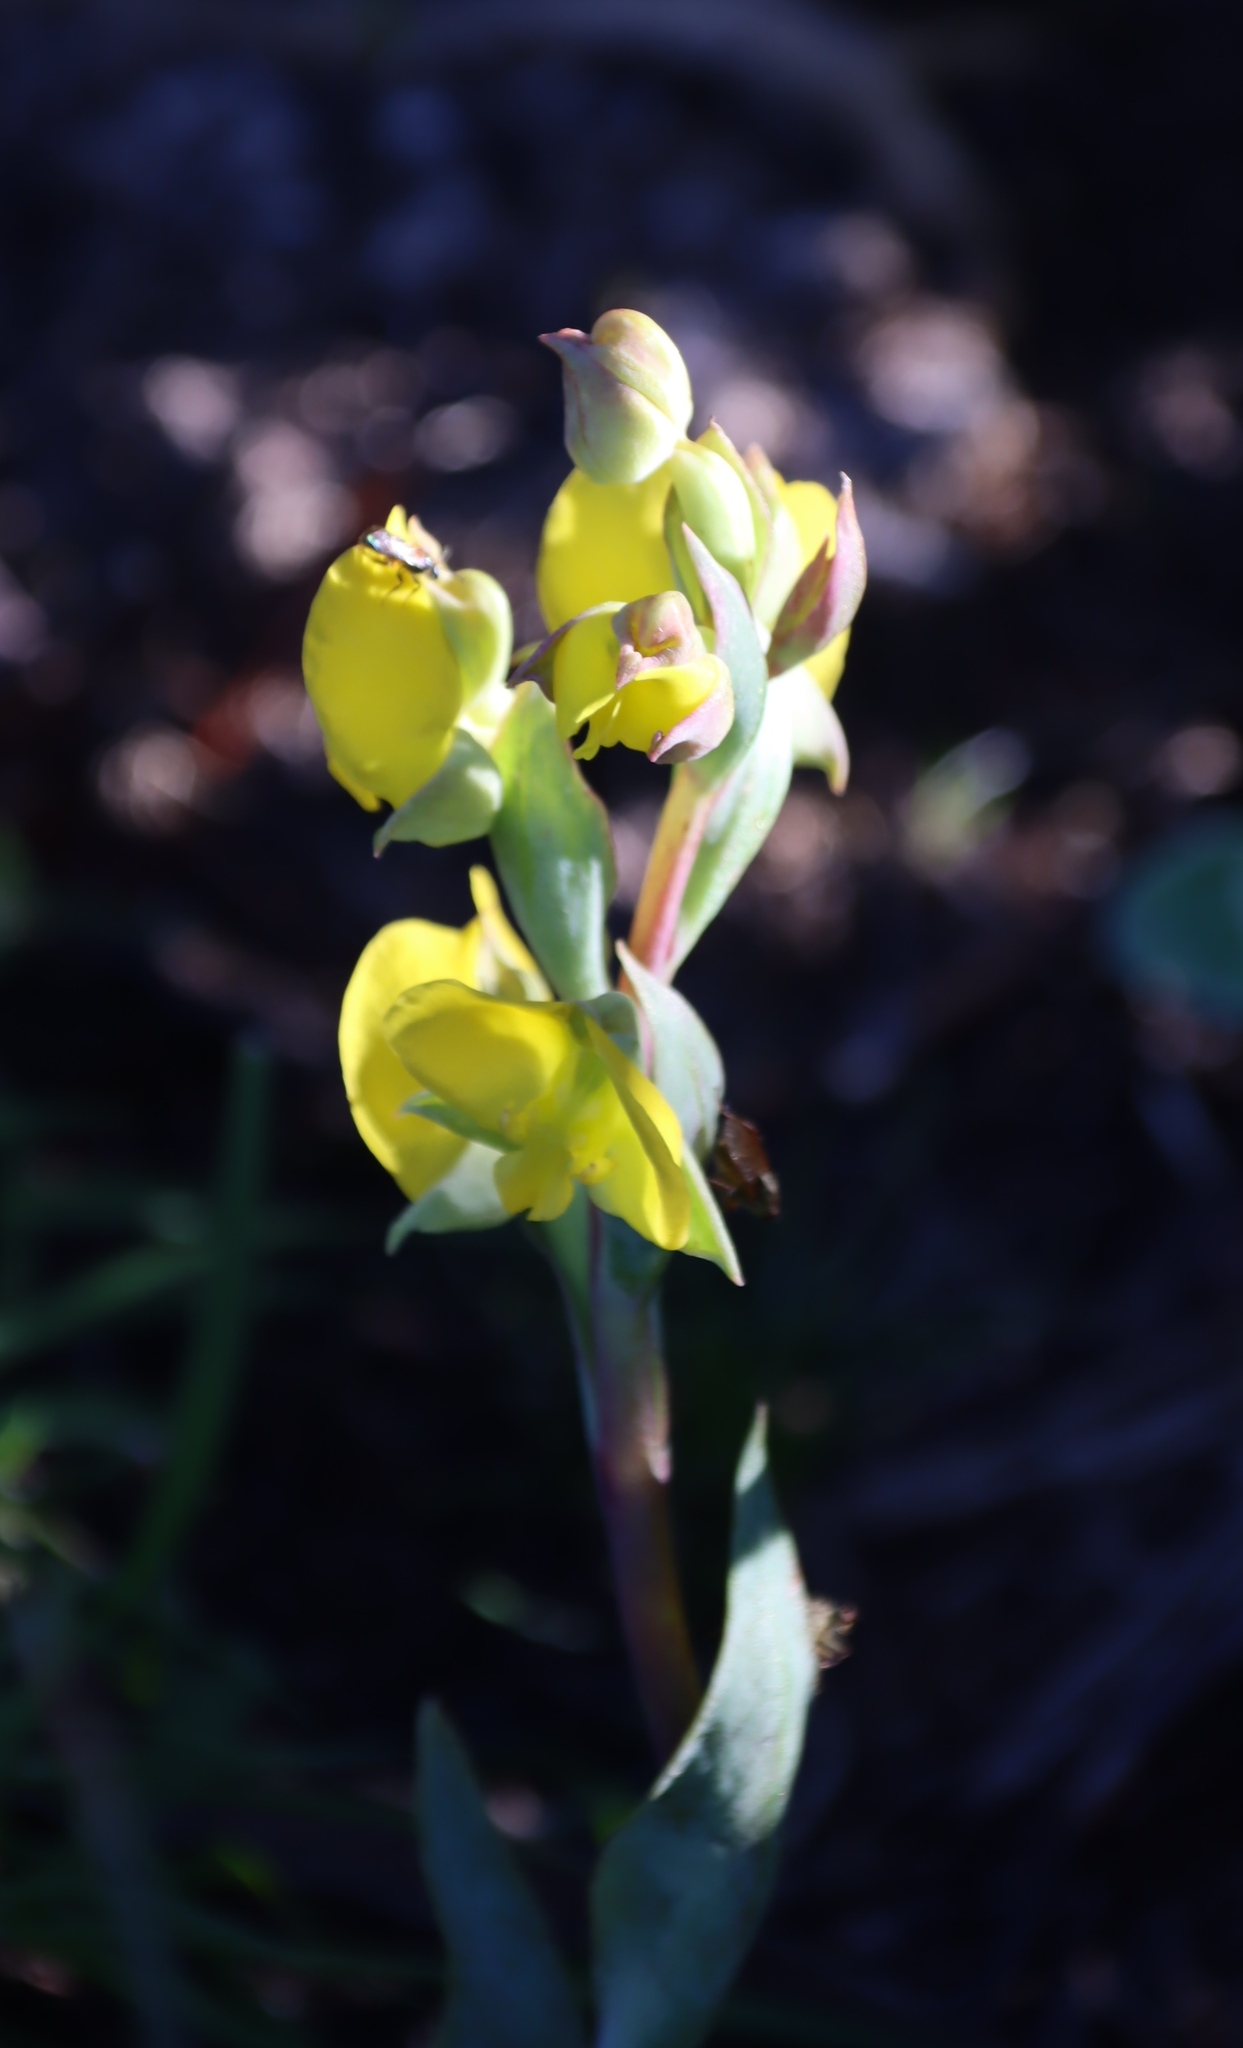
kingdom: Plantae
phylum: Tracheophyta
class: Liliopsida
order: Asparagales
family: Orchidaceae
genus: Pterygodium
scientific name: Pterygodium acutifolium
